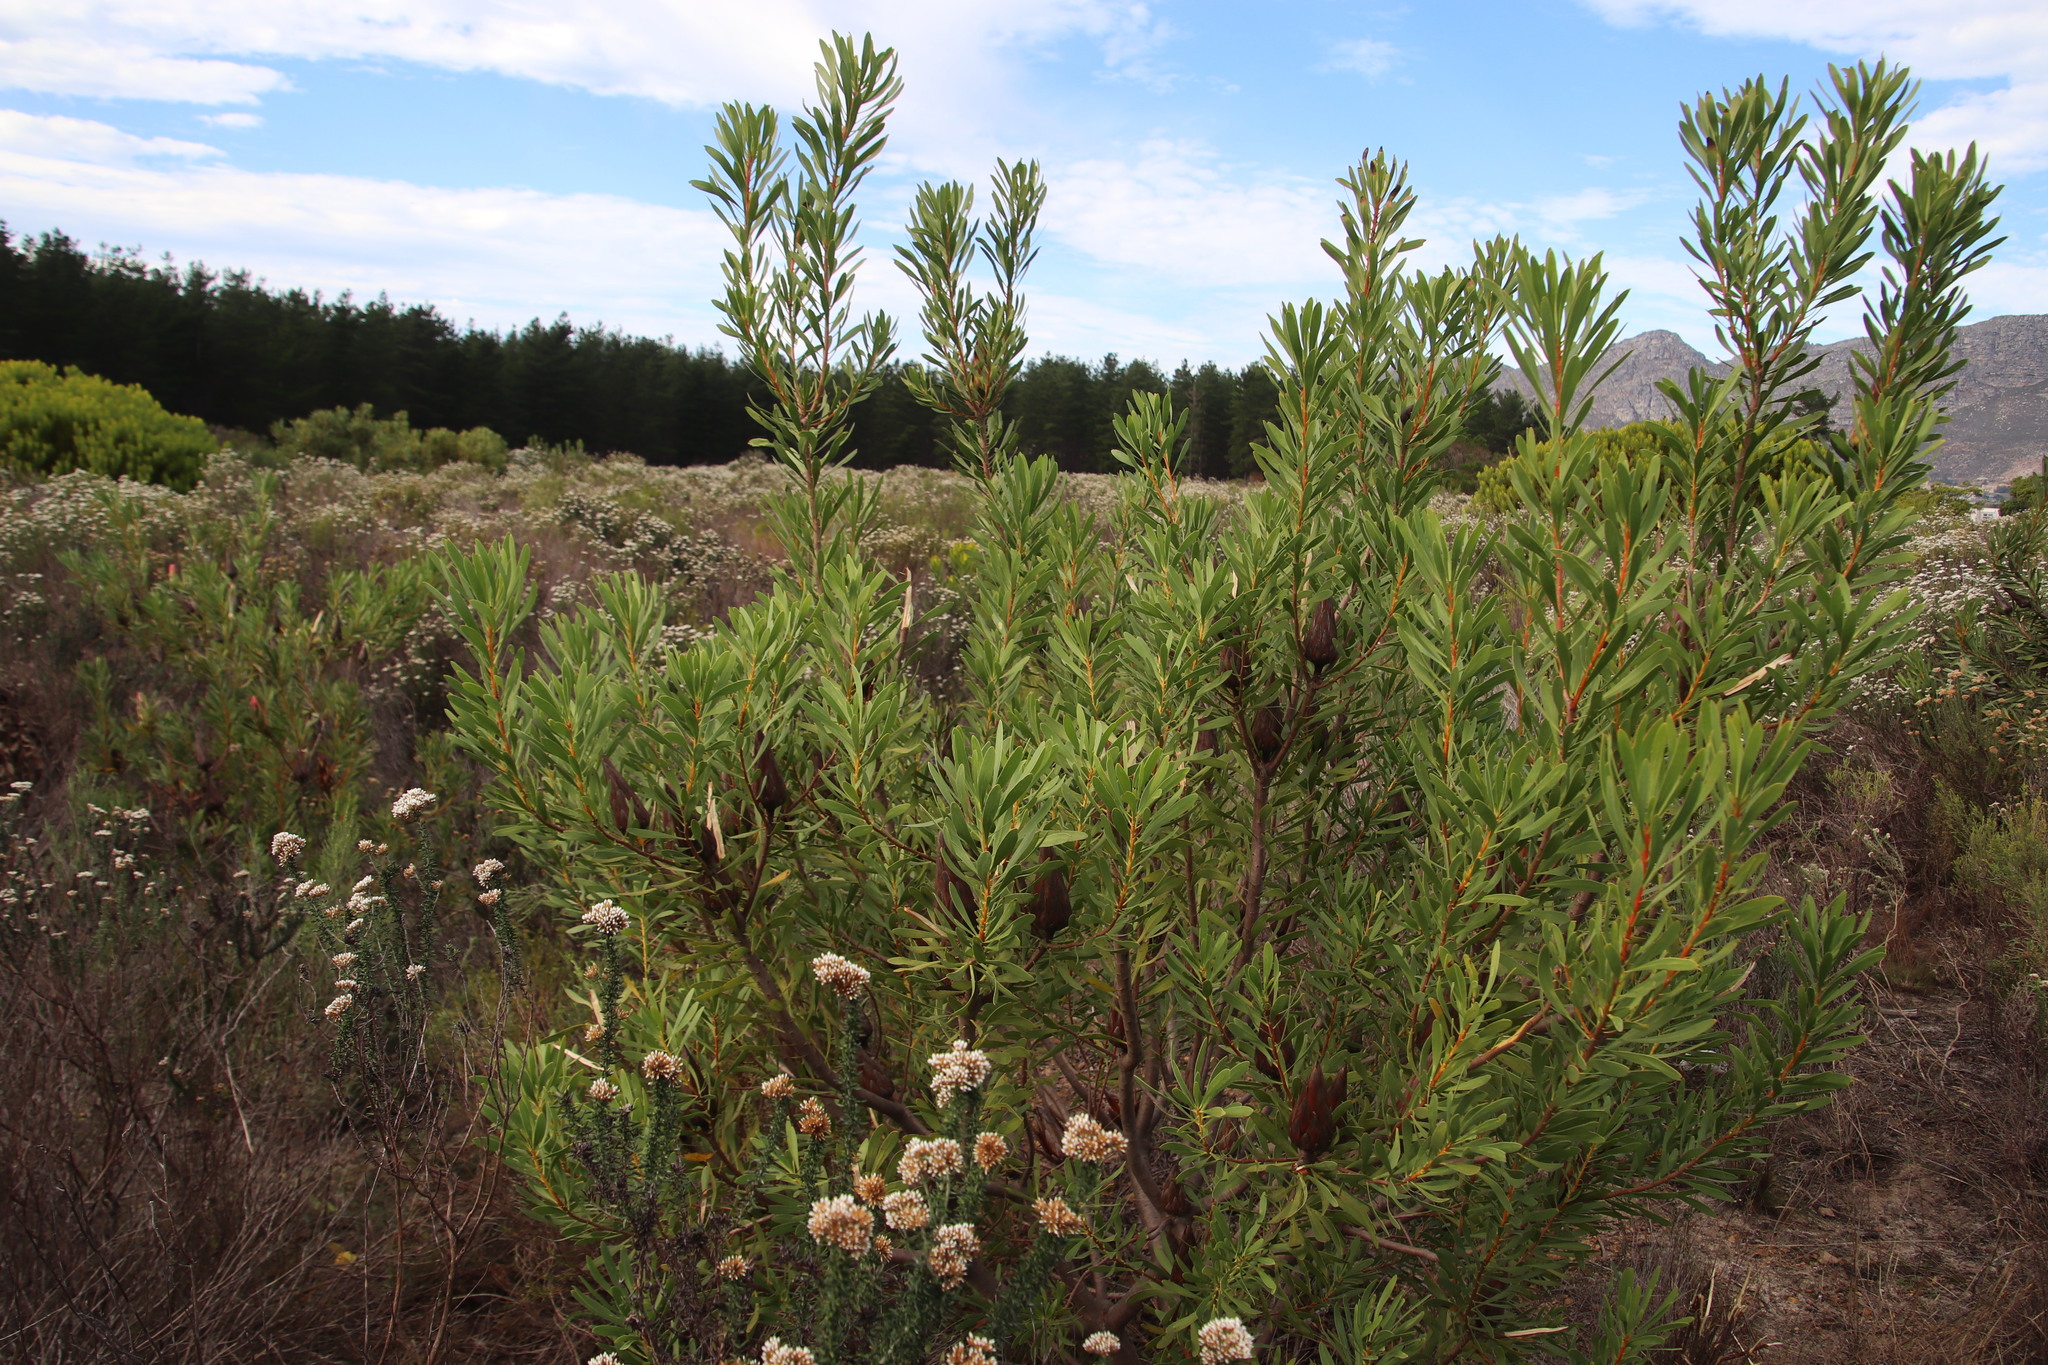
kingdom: Plantae
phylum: Tracheophyta
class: Magnoliopsida
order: Proteales
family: Proteaceae
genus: Protea
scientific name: Protea repens
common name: Sugarbush
